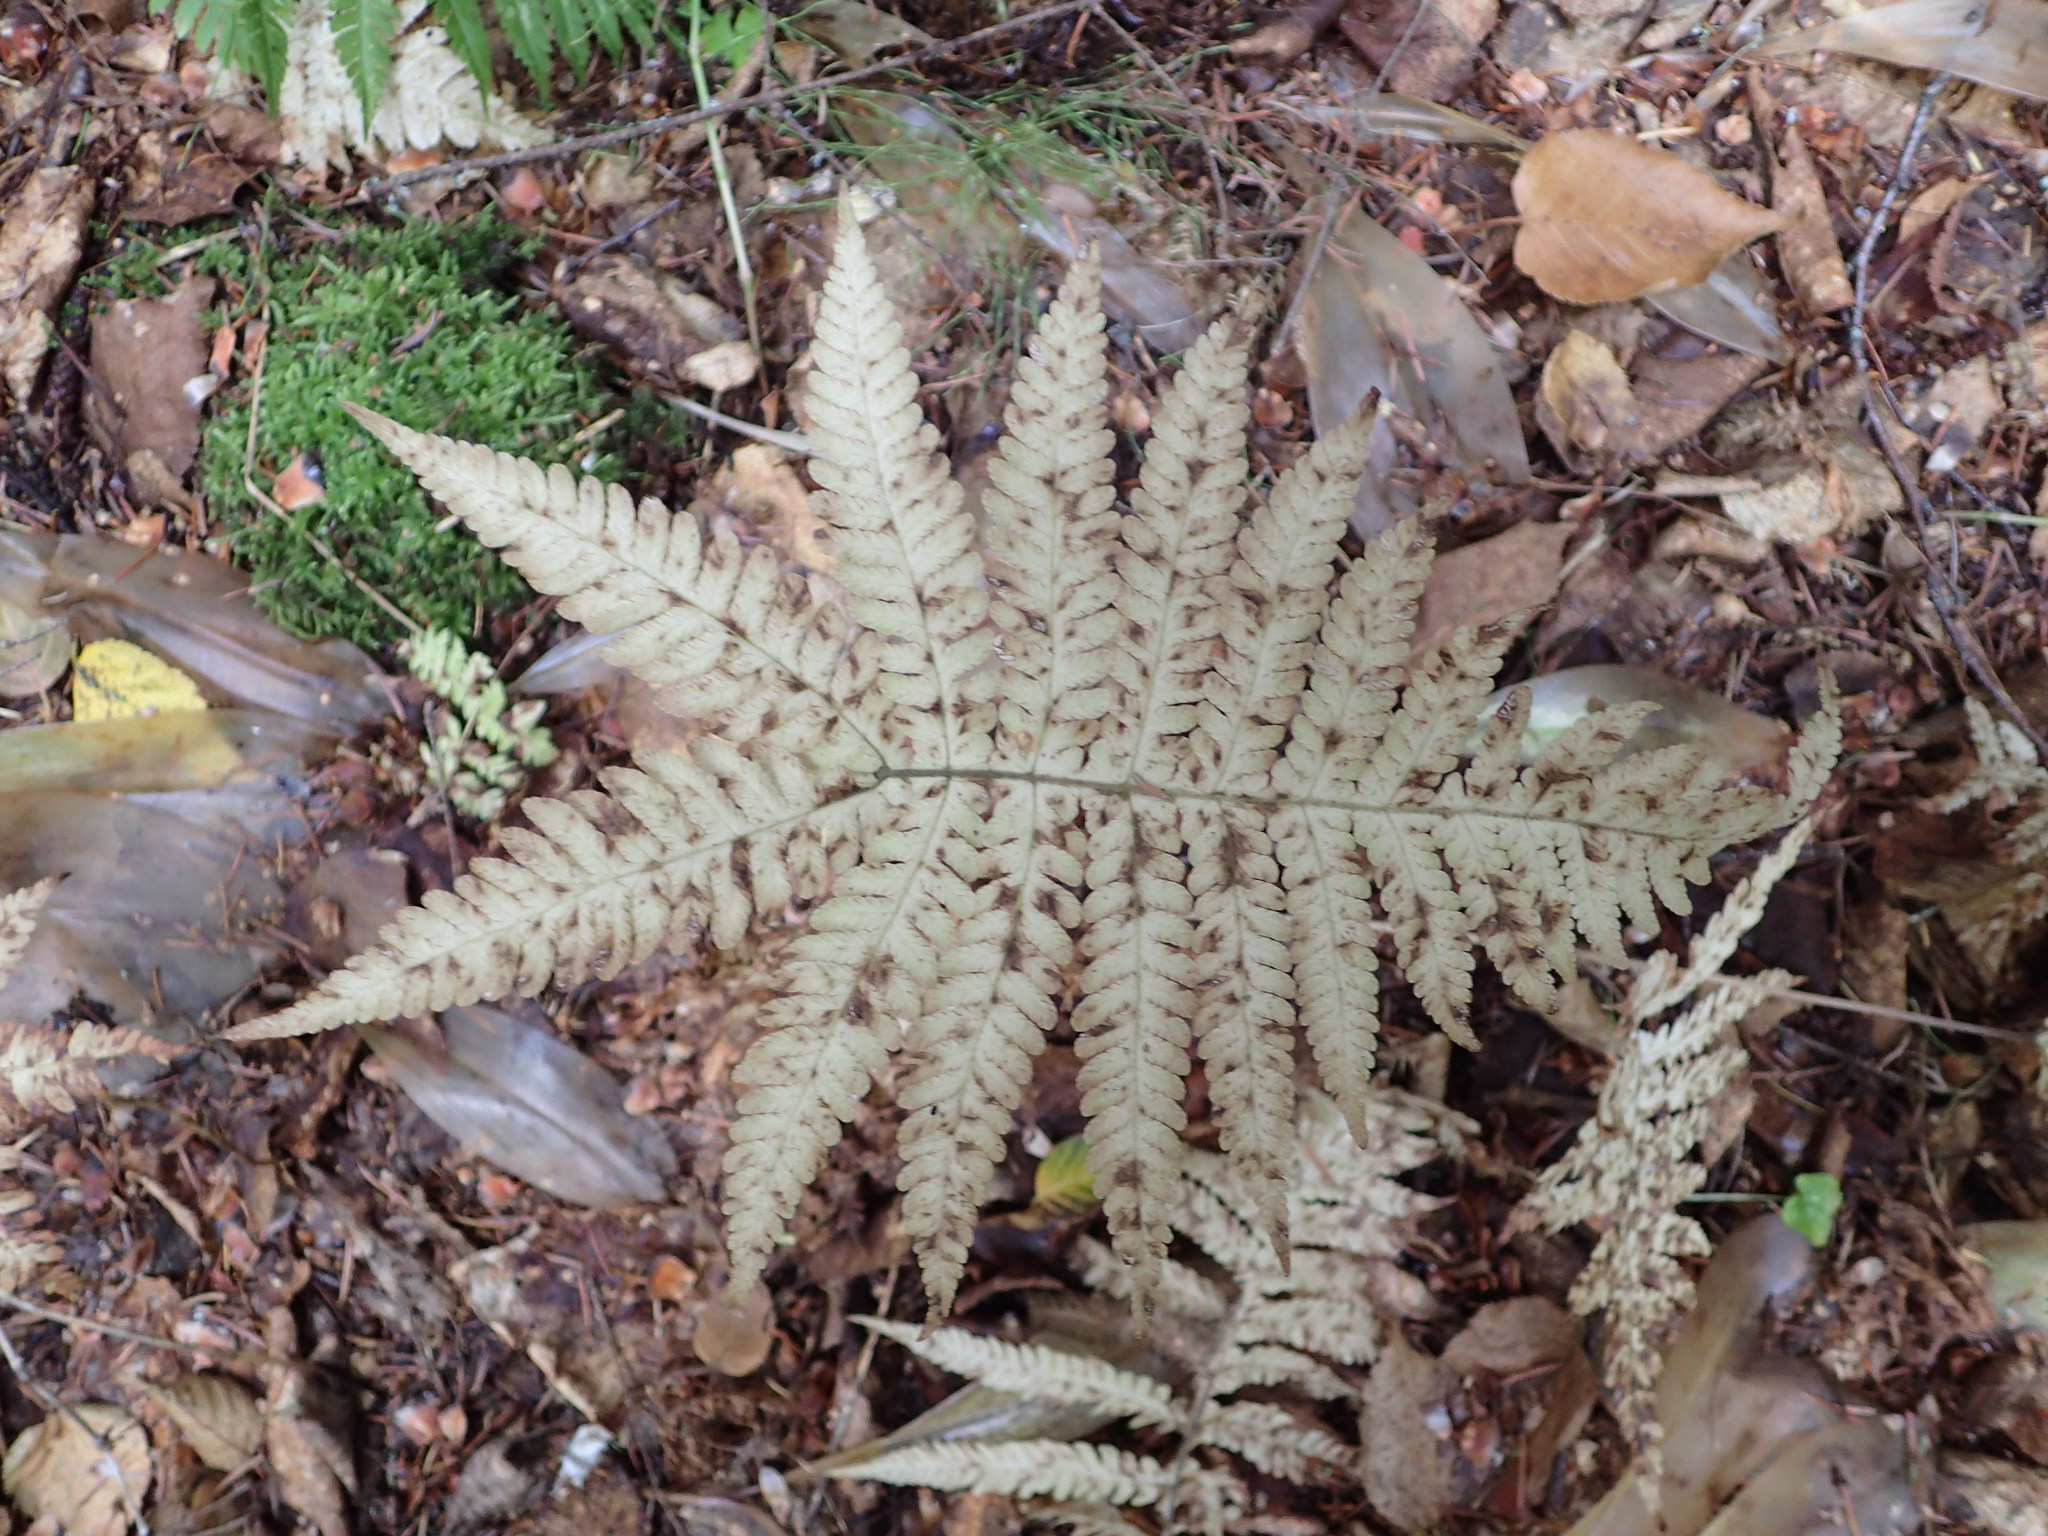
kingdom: Plantae
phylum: Tracheophyta
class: Polypodiopsida
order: Polypodiales
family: Thelypteridaceae
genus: Phegopteris
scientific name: Phegopteris connectilis
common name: Beech fern
